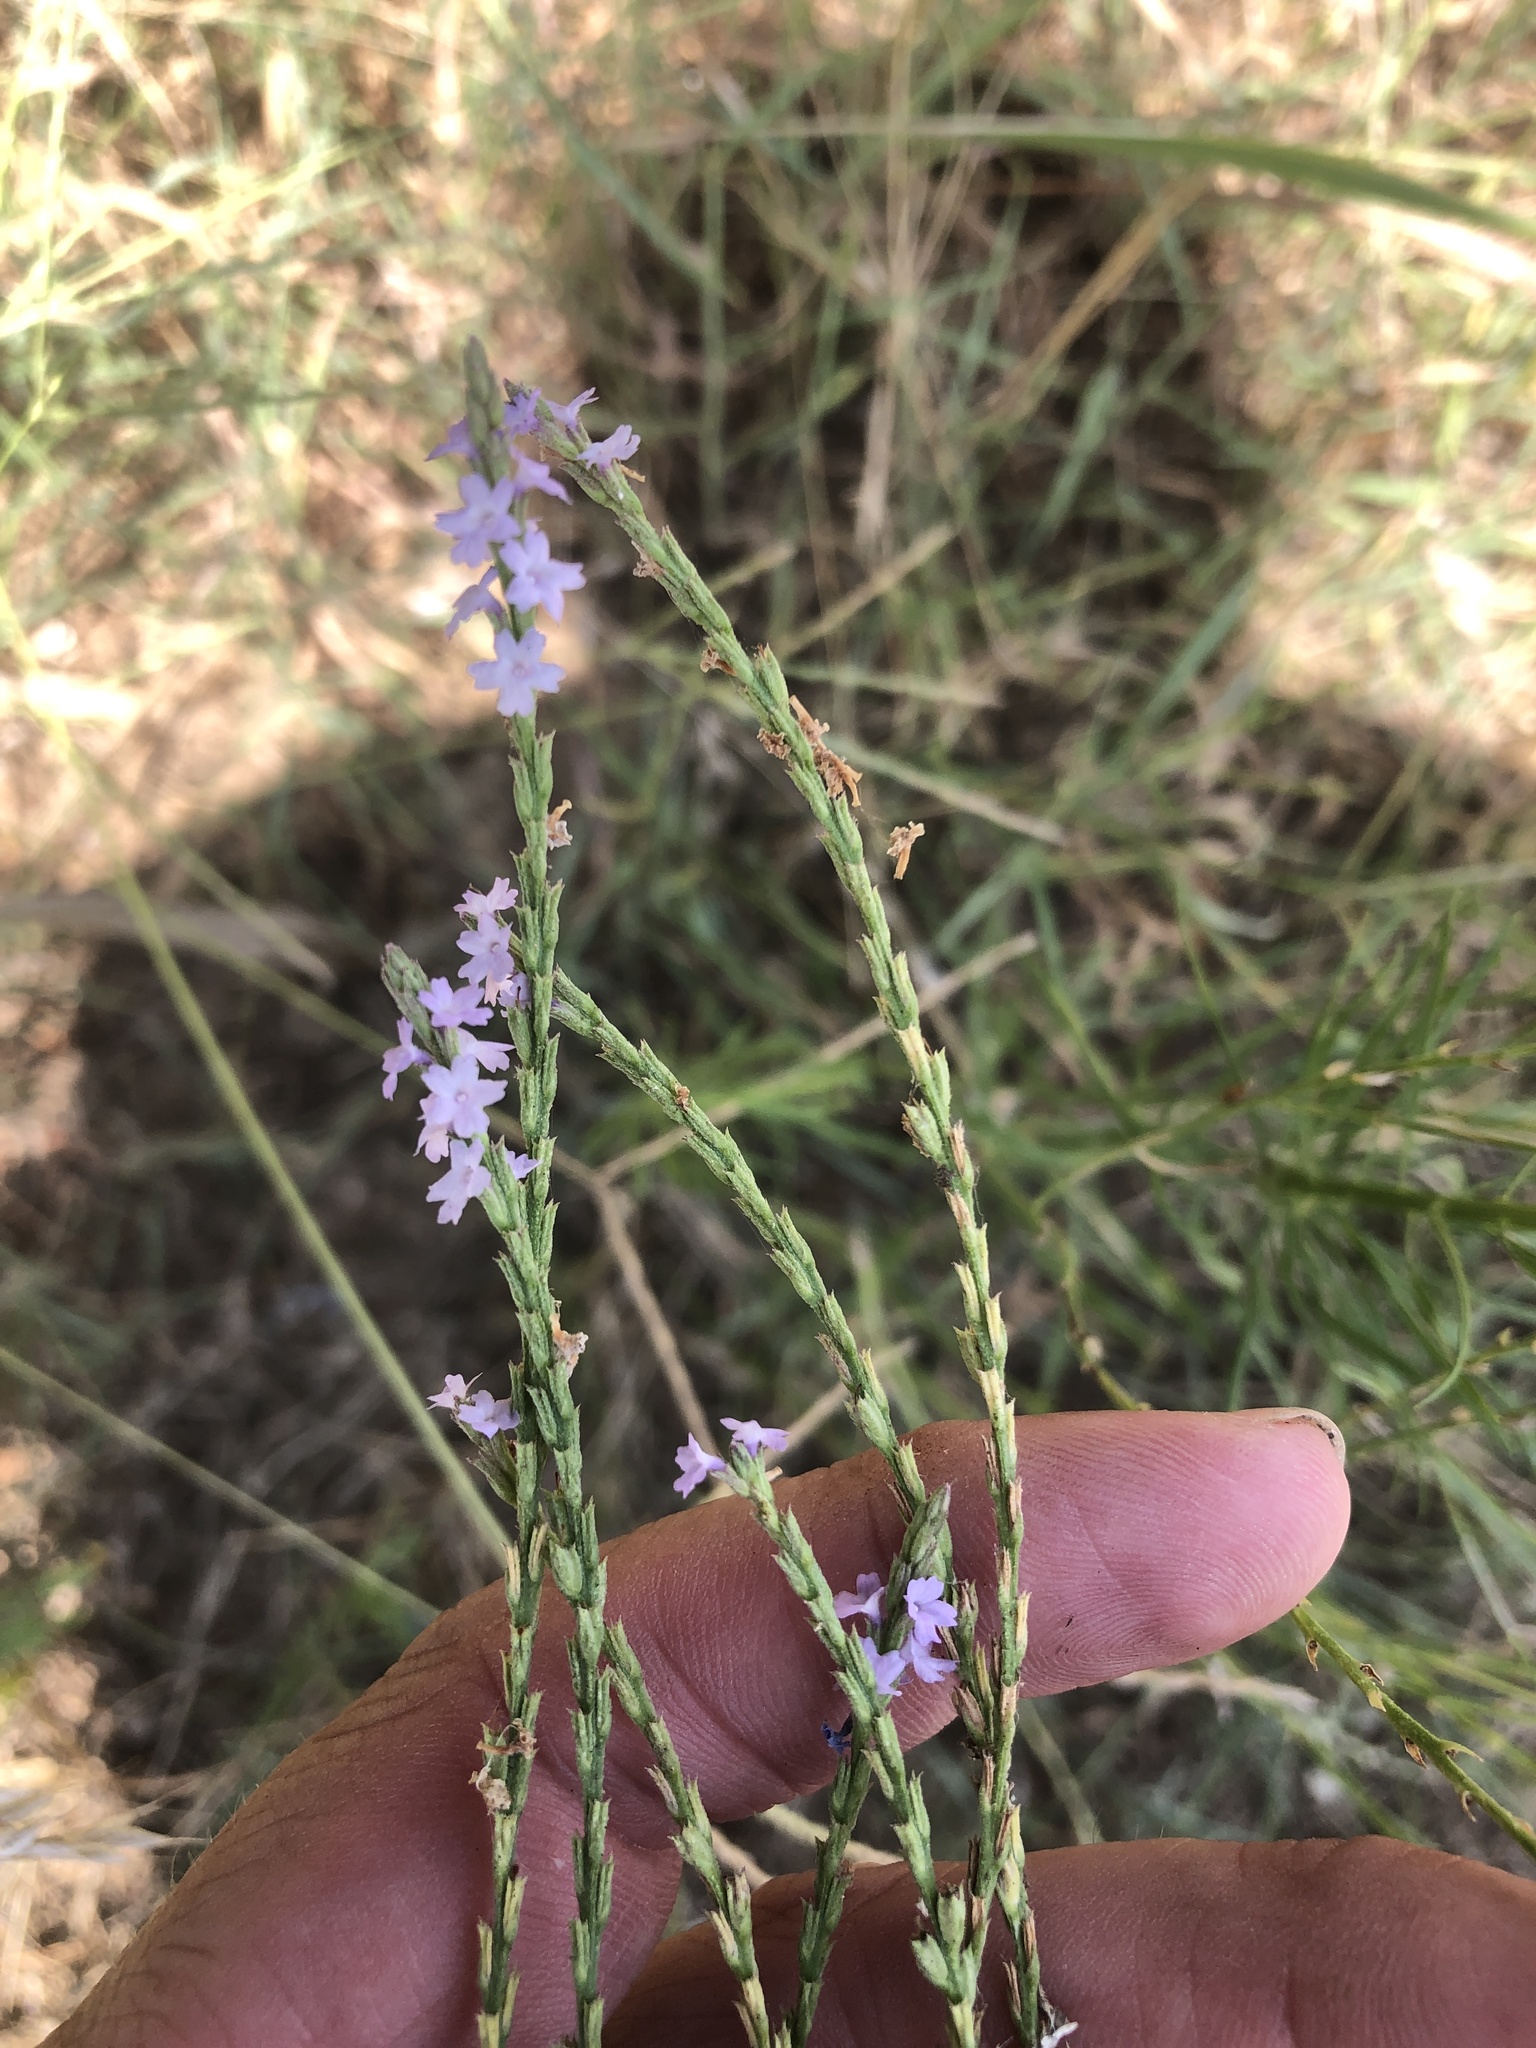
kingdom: Plantae
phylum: Tracheophyta
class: Magnoliopsida
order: Lamiales
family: Verbenaceae
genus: Verbena
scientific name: Verbena halei
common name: Texas vervain
